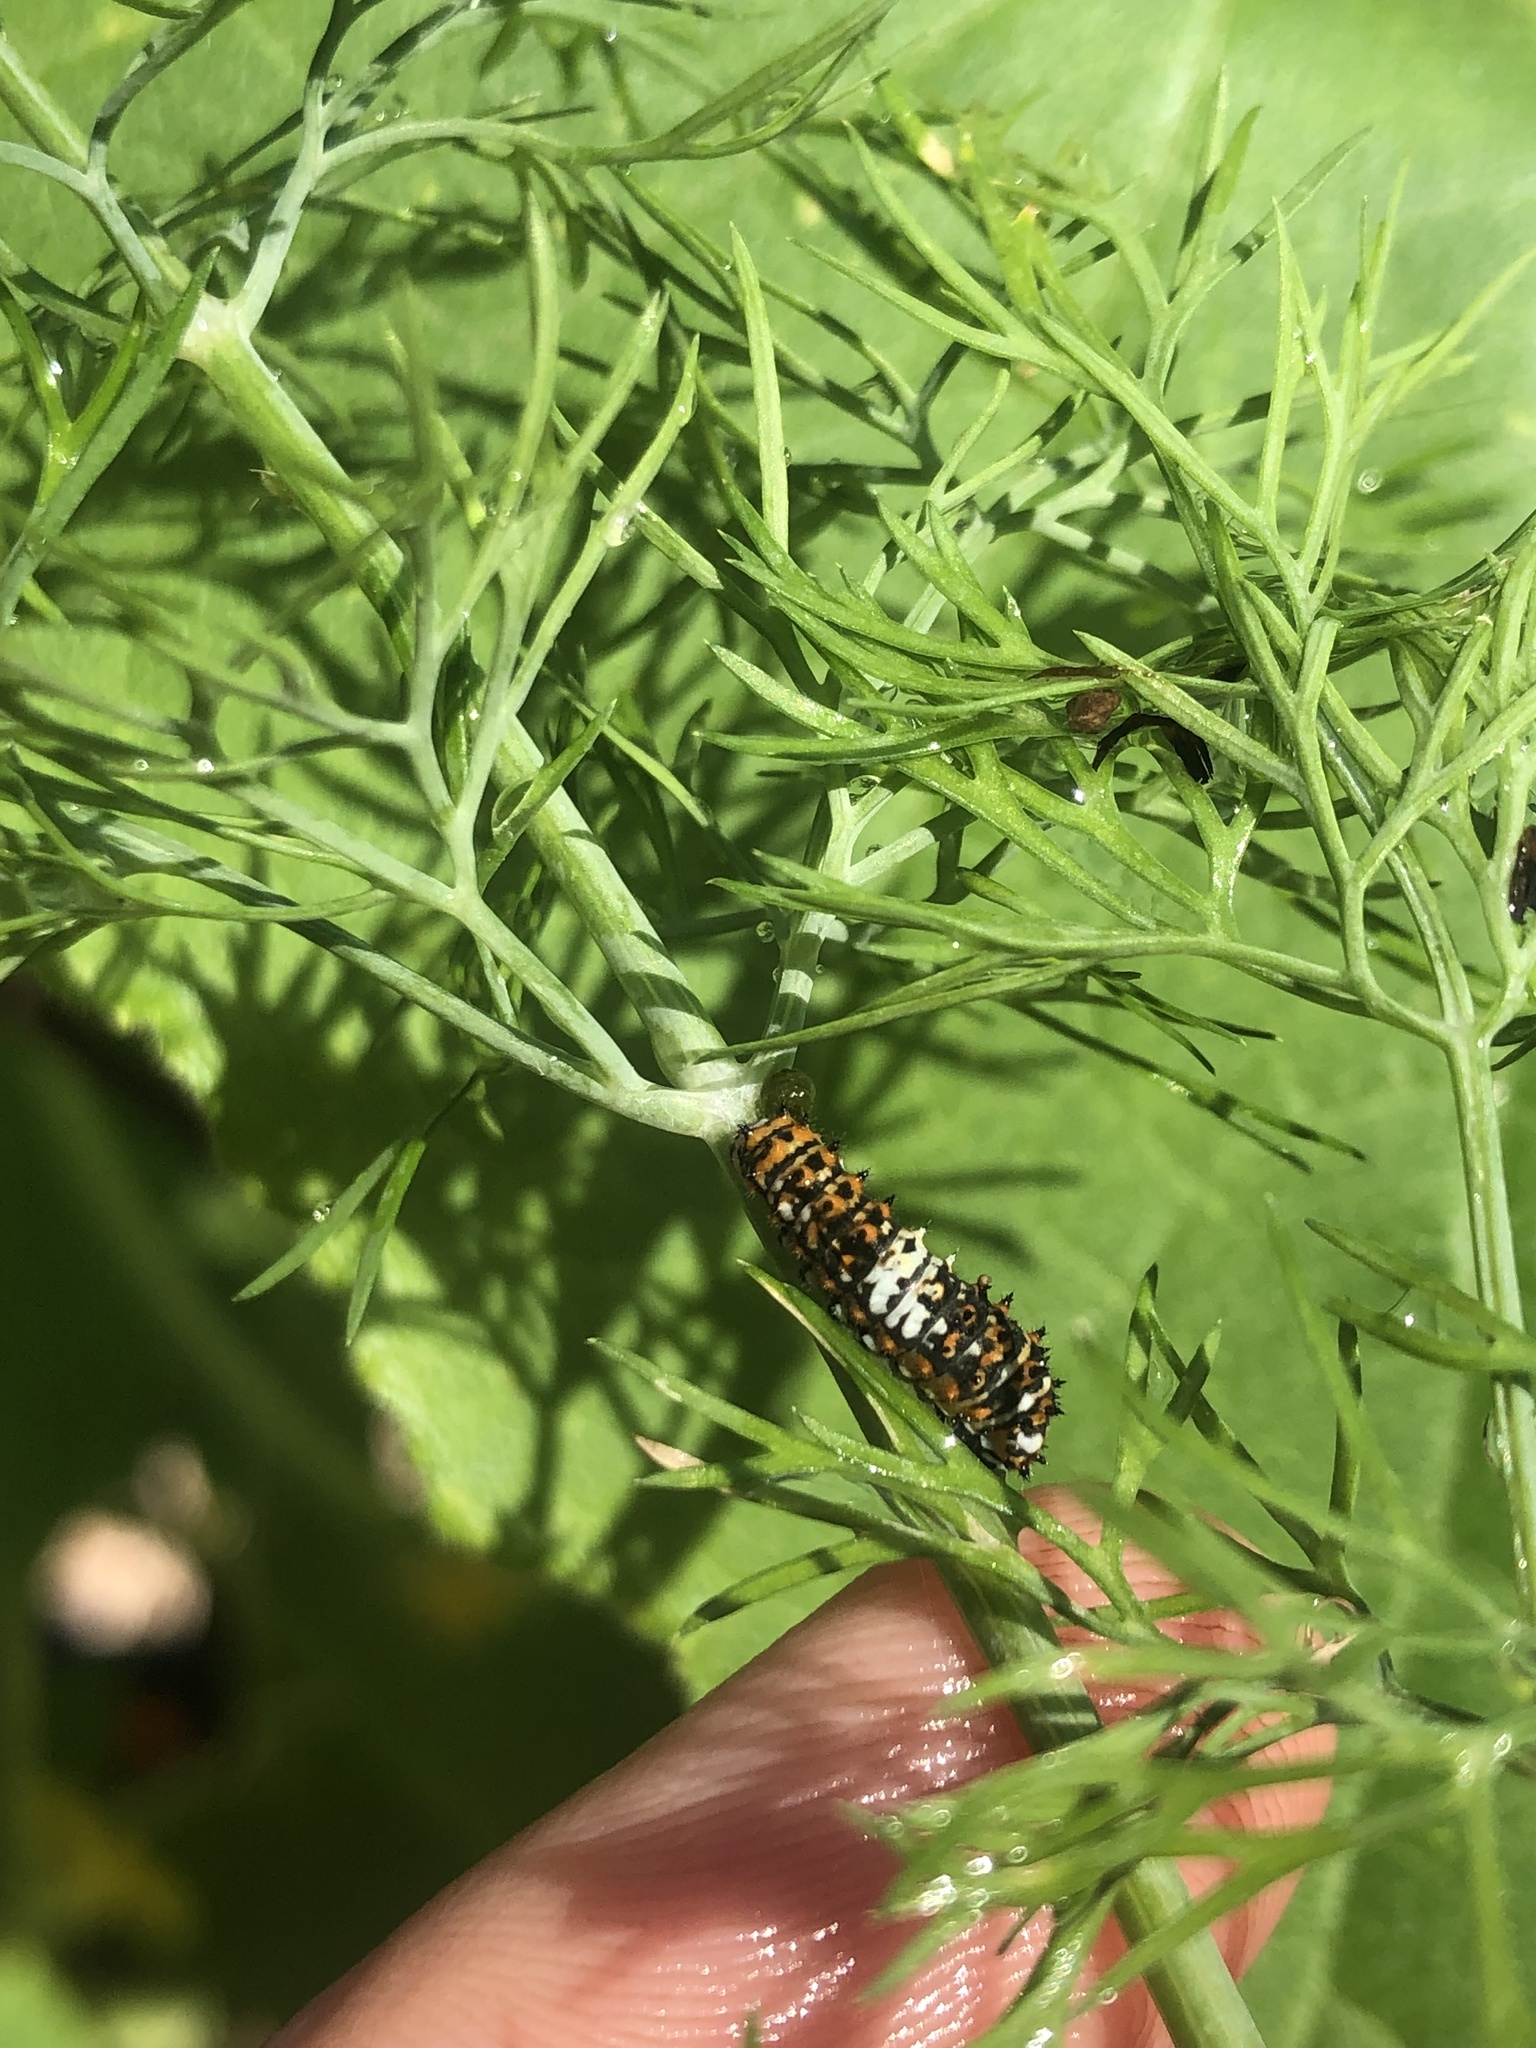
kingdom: Animalia
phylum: Arthropoda
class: Insecta
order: Lepidoptera
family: Papilionidae
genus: Papilio
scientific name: Papilio polyxenes
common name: Black swallowtail
